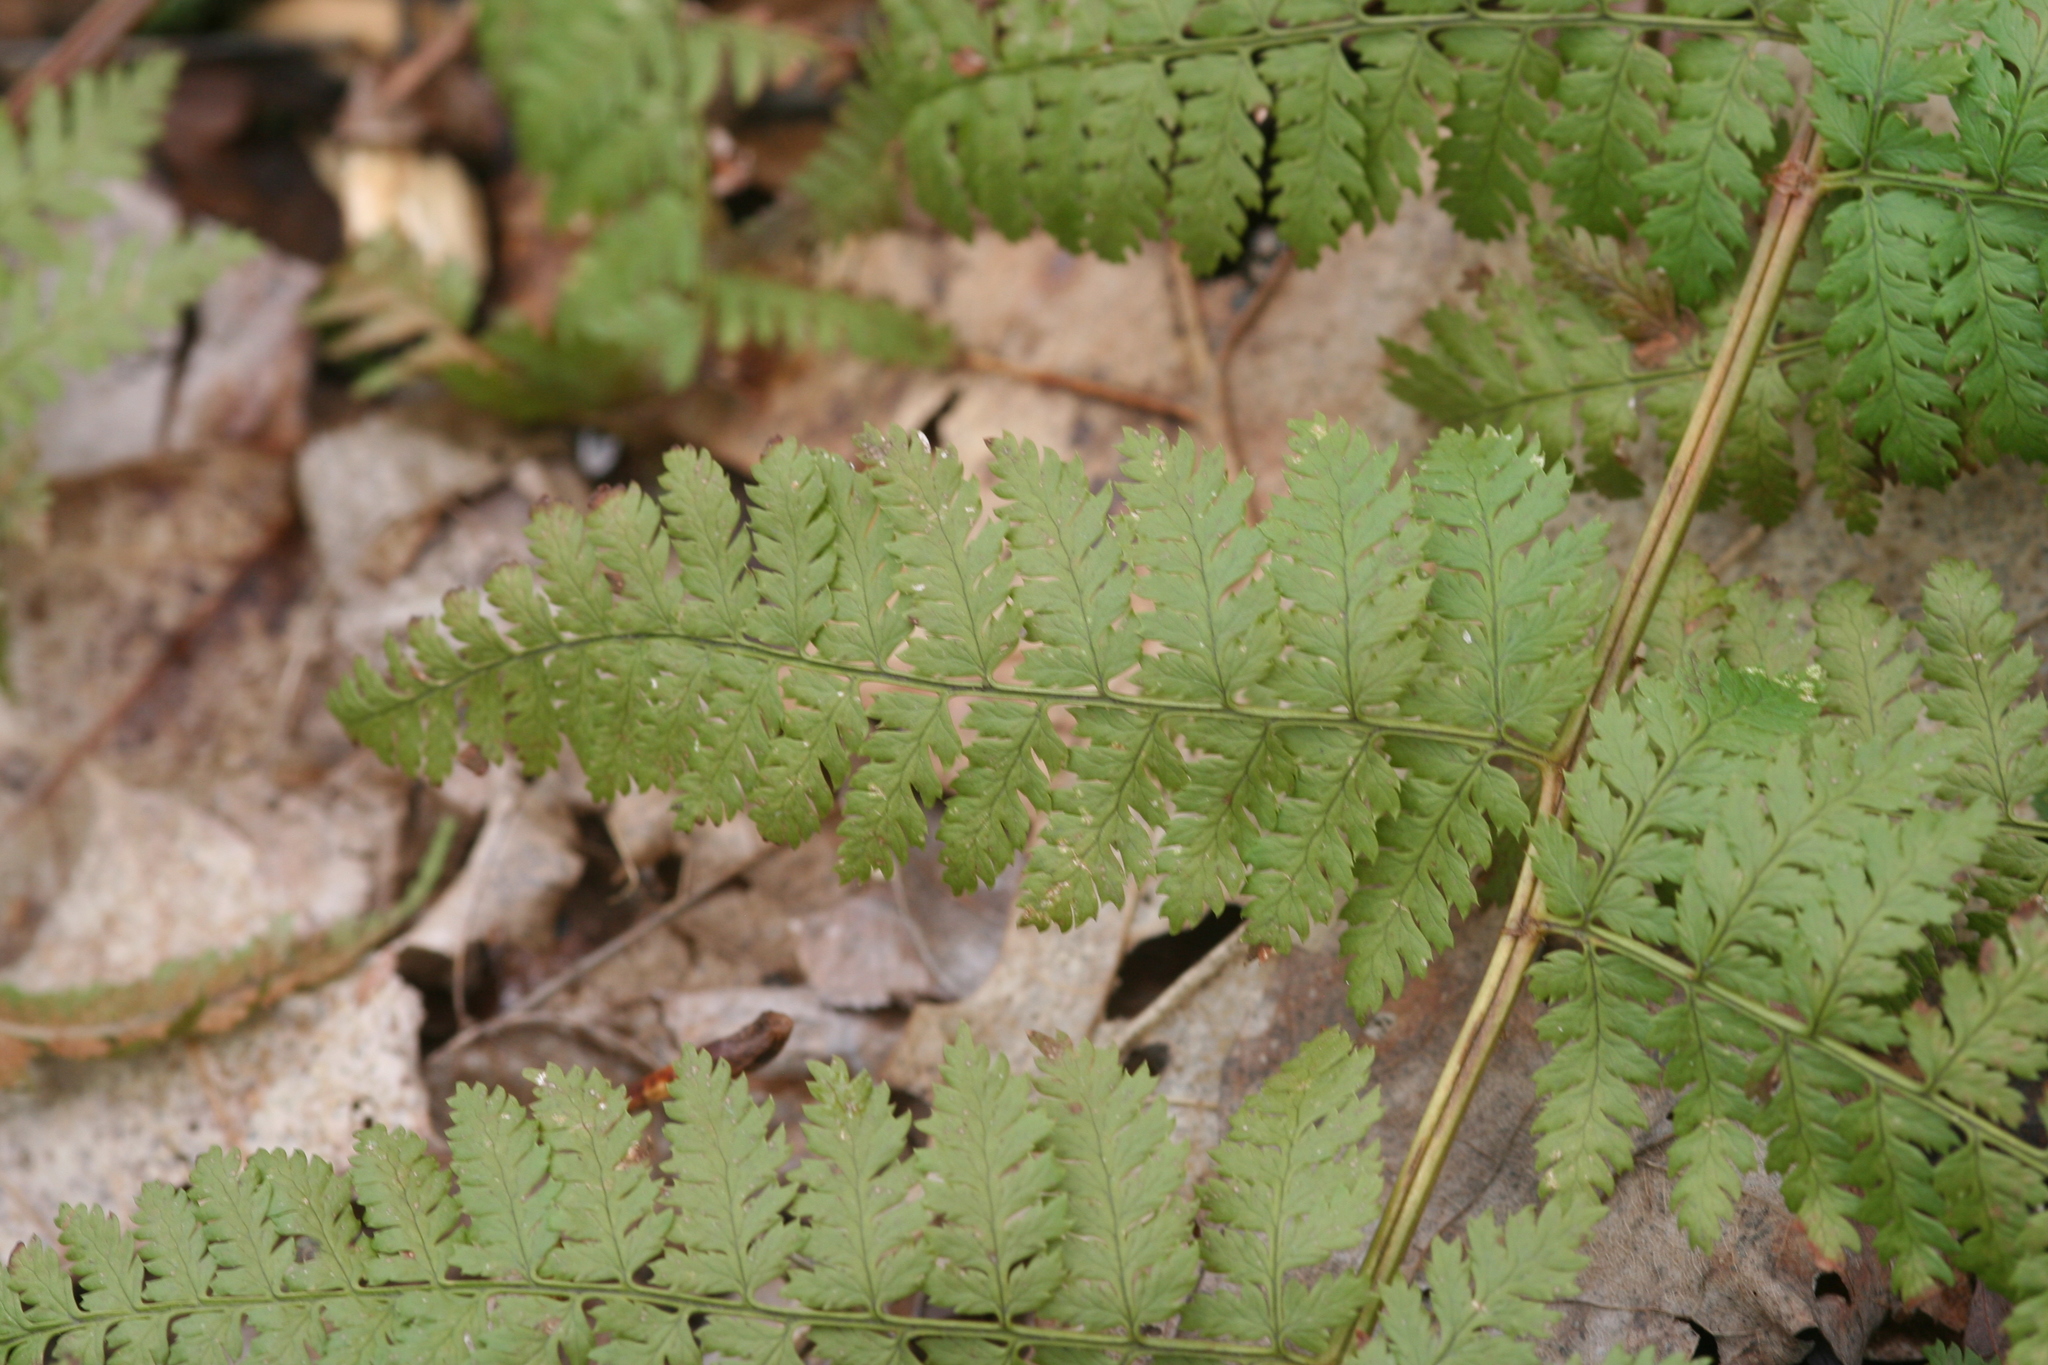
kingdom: Plantae
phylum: Tracheophyta
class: Polypodiopsida
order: Polypodiales
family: Dryopteridaceae
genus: Dryopteris
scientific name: Dryopteris intermedia
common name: Evergreen wood fern
